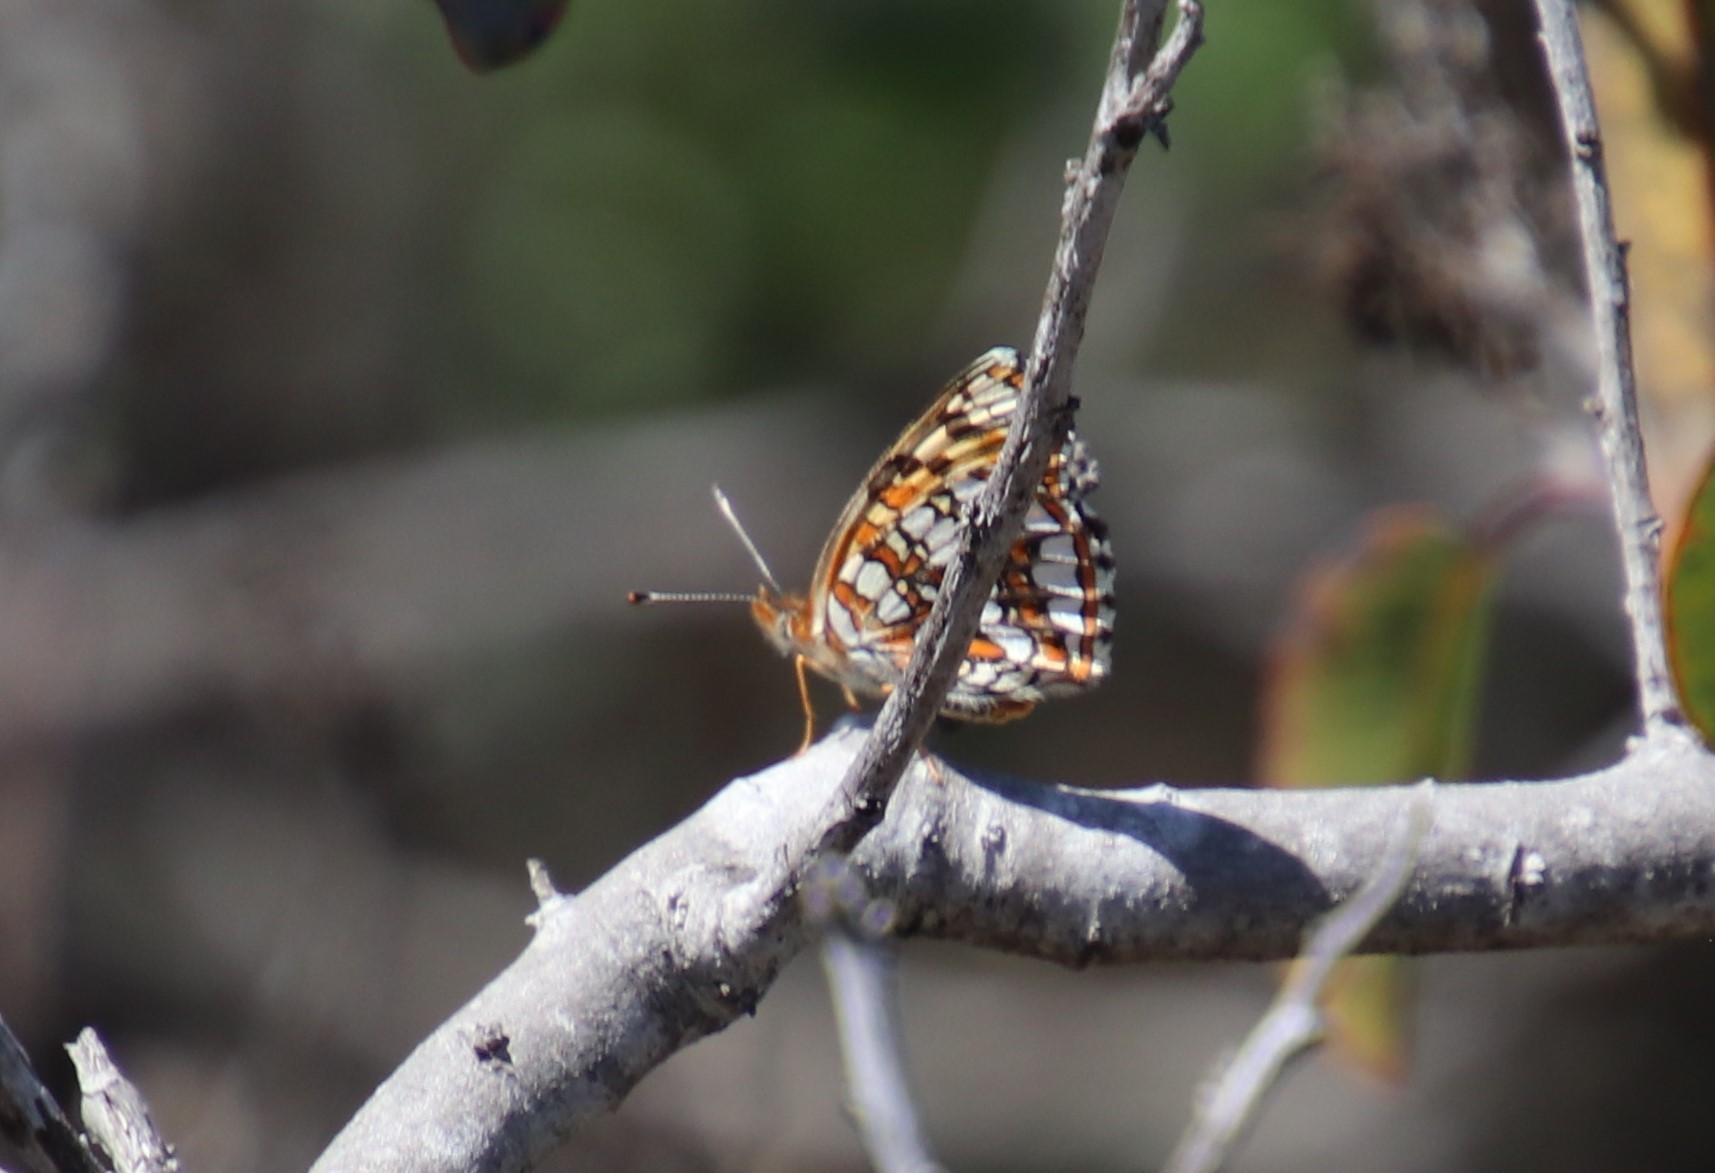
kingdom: Animalia
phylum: Arthropoda
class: Insecta
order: Lepidoptera
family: Nymphalidae
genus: Chlosyne
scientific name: Chlosyne gabbii
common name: Gabb's checkerspot
